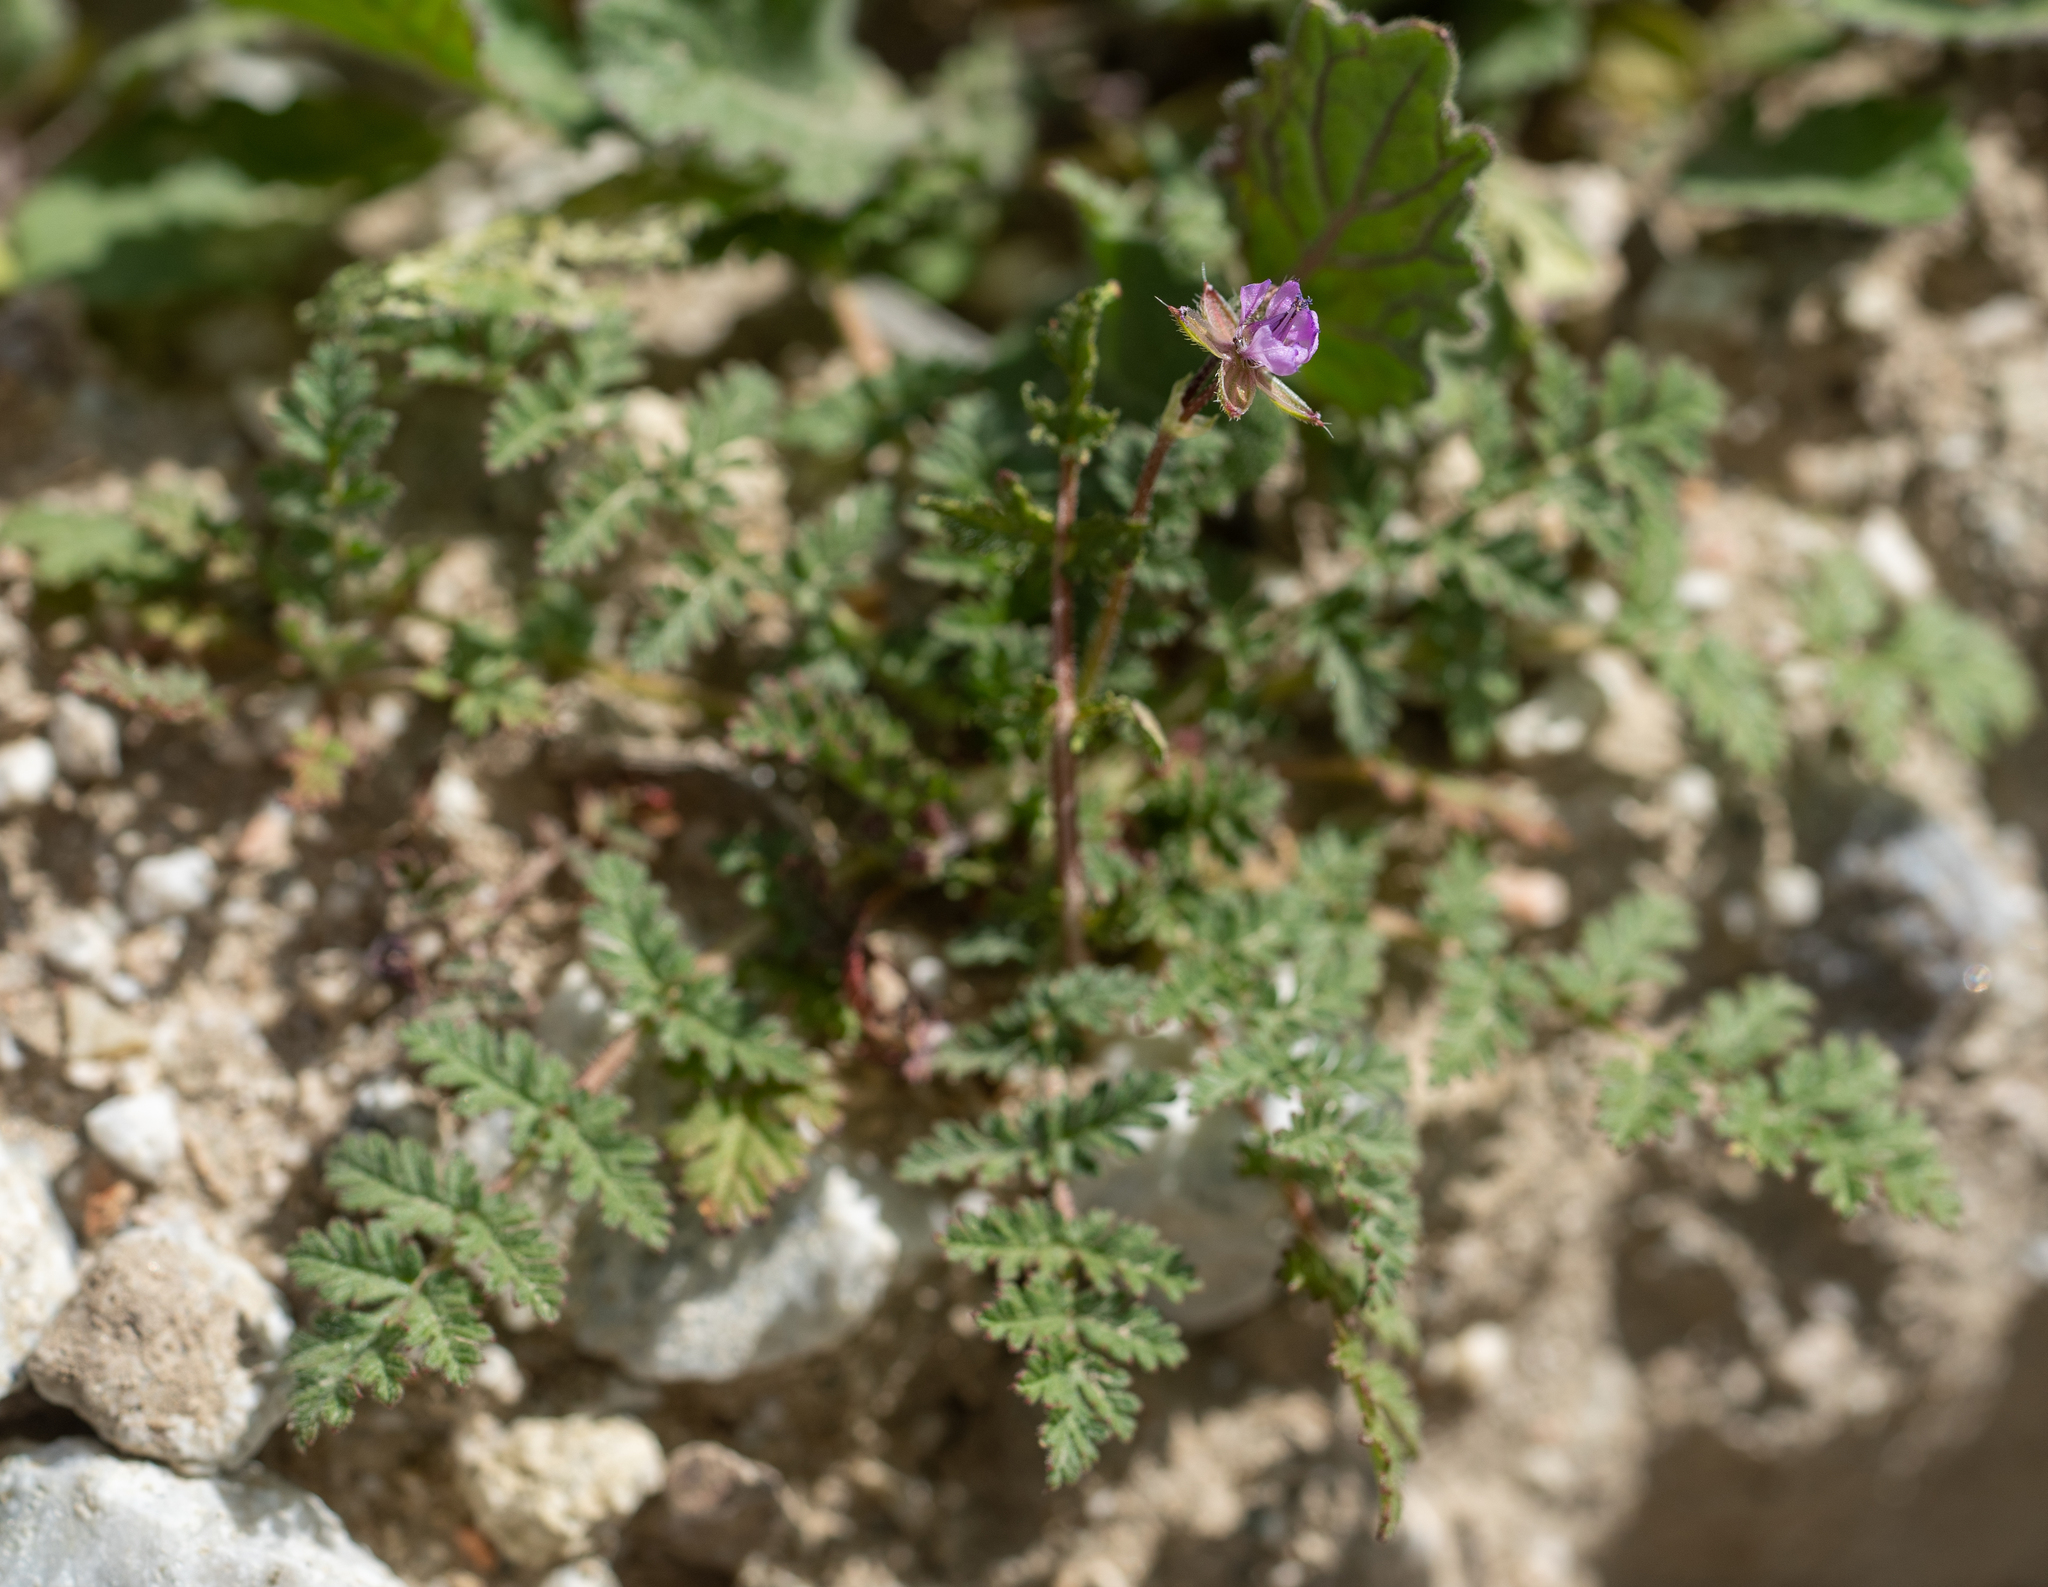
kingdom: Plantae
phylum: Tracheophyta
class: Magnoliopsida
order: Geraniales
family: Geraniaceae
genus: Erodium
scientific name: Erodium cicutarium
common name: Common stork's-bill
